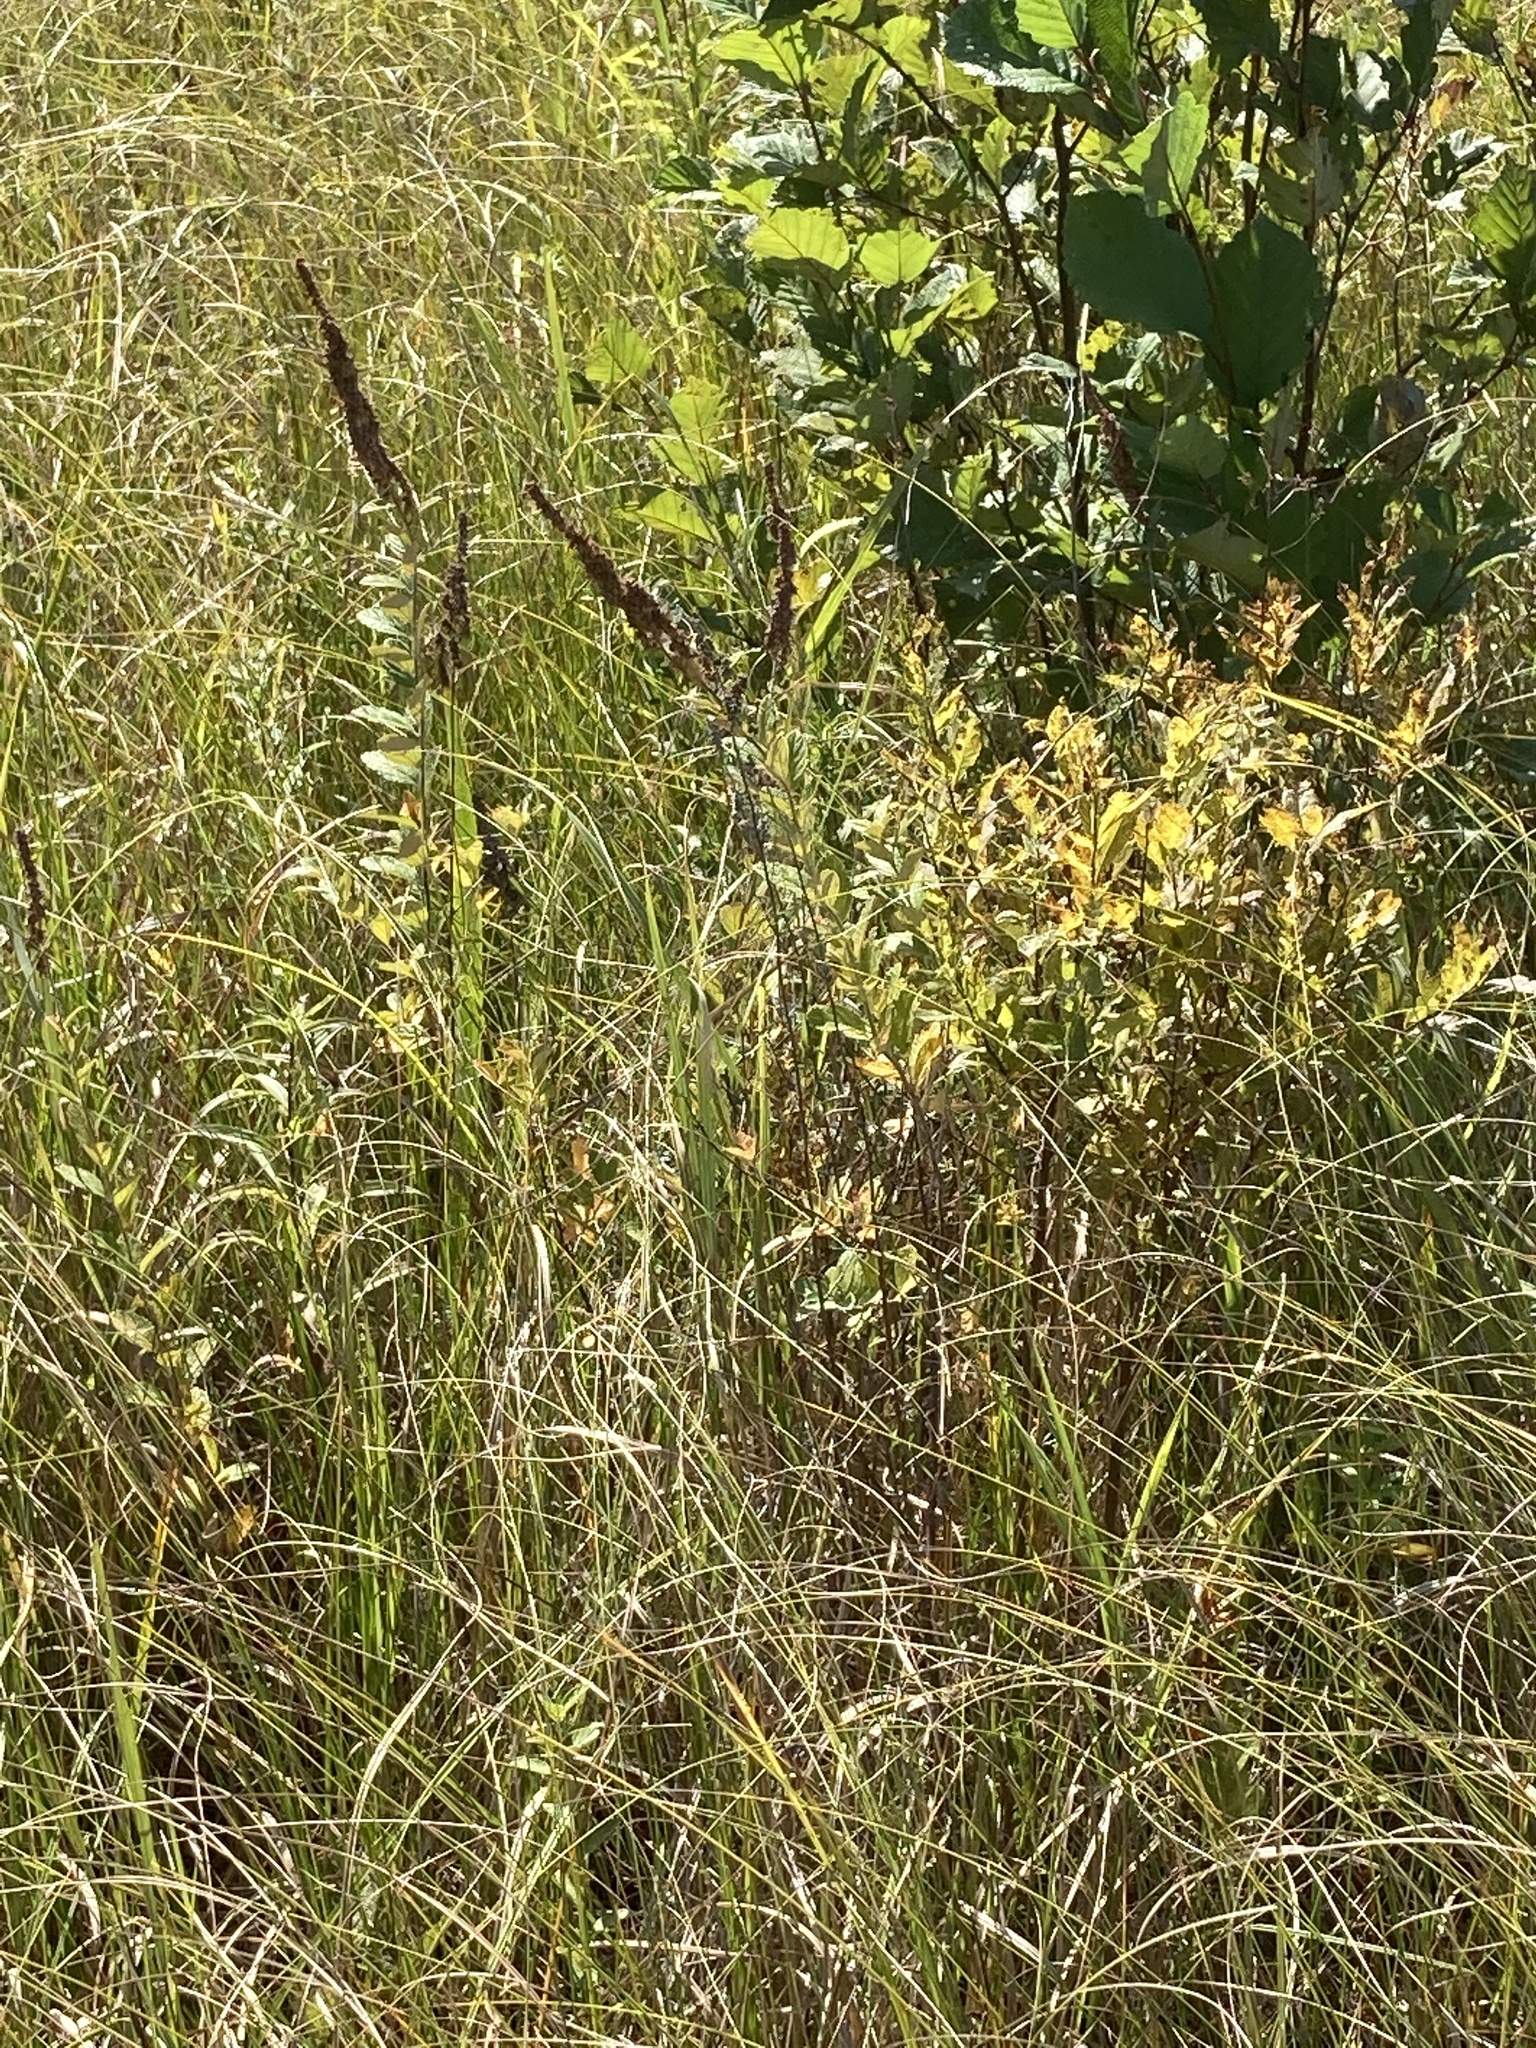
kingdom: Plantae
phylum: Tracheophyta
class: Magnoliopsida
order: Rosales
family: Rosaceae
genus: Spiraea
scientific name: Spiraea tomentosa
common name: Hardhack
